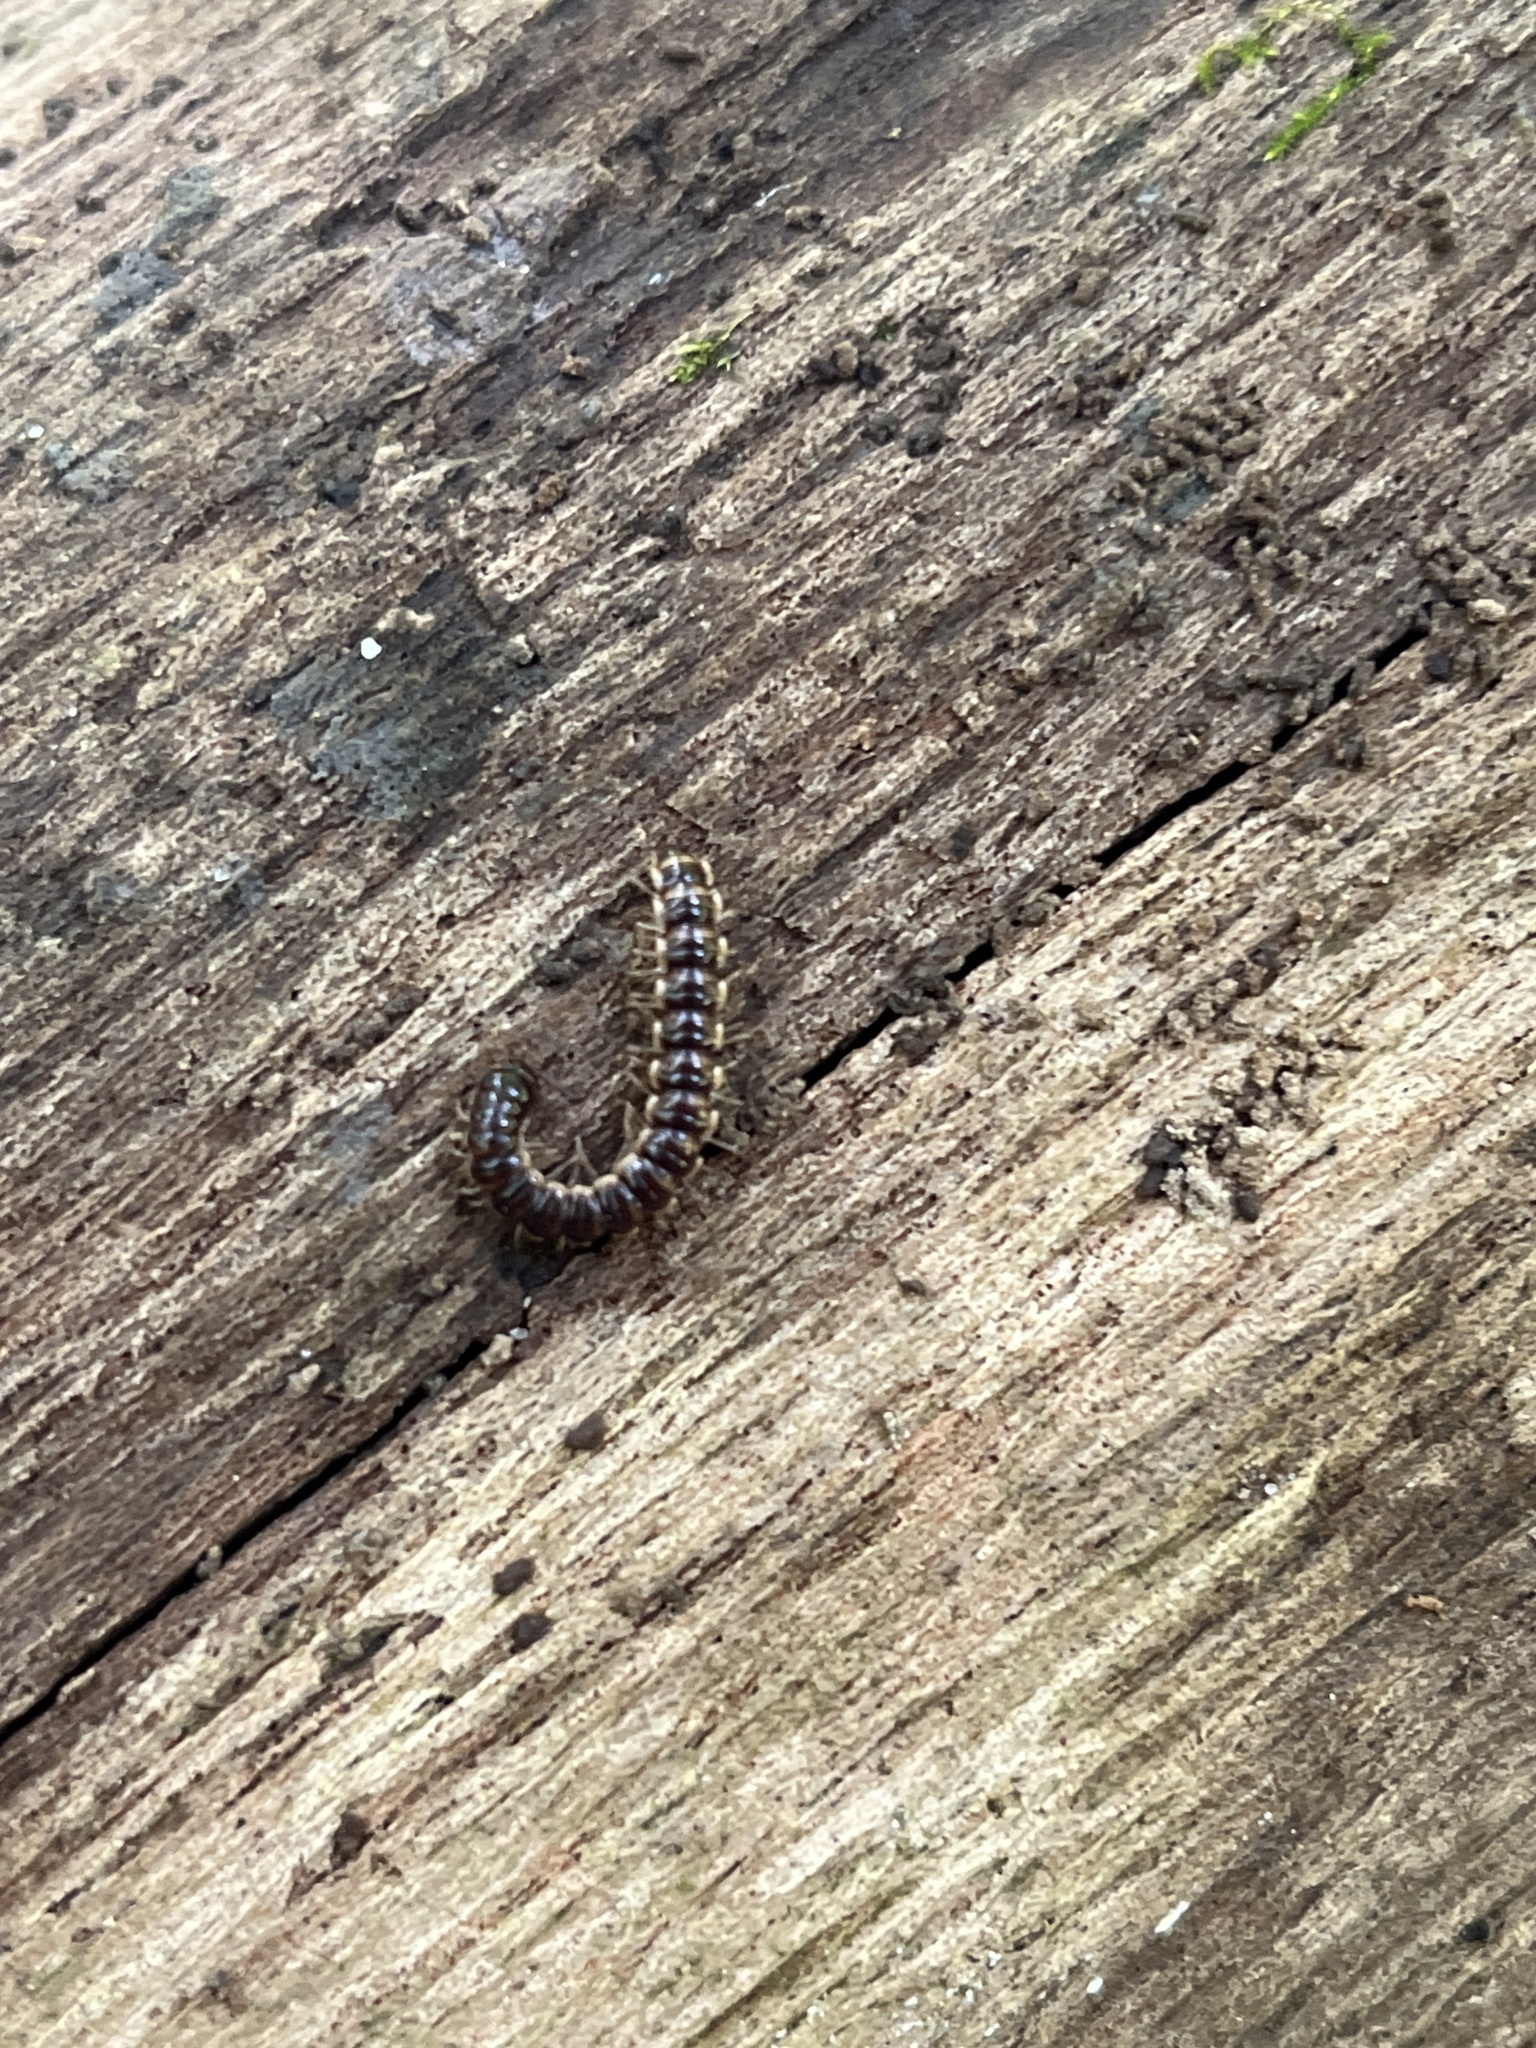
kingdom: Animalia
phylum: Arthropoda
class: Diplopoda
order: Polydesmida
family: Paradoxosomatidae
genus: Orthomorpha
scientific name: Orthomorpha coarctata
